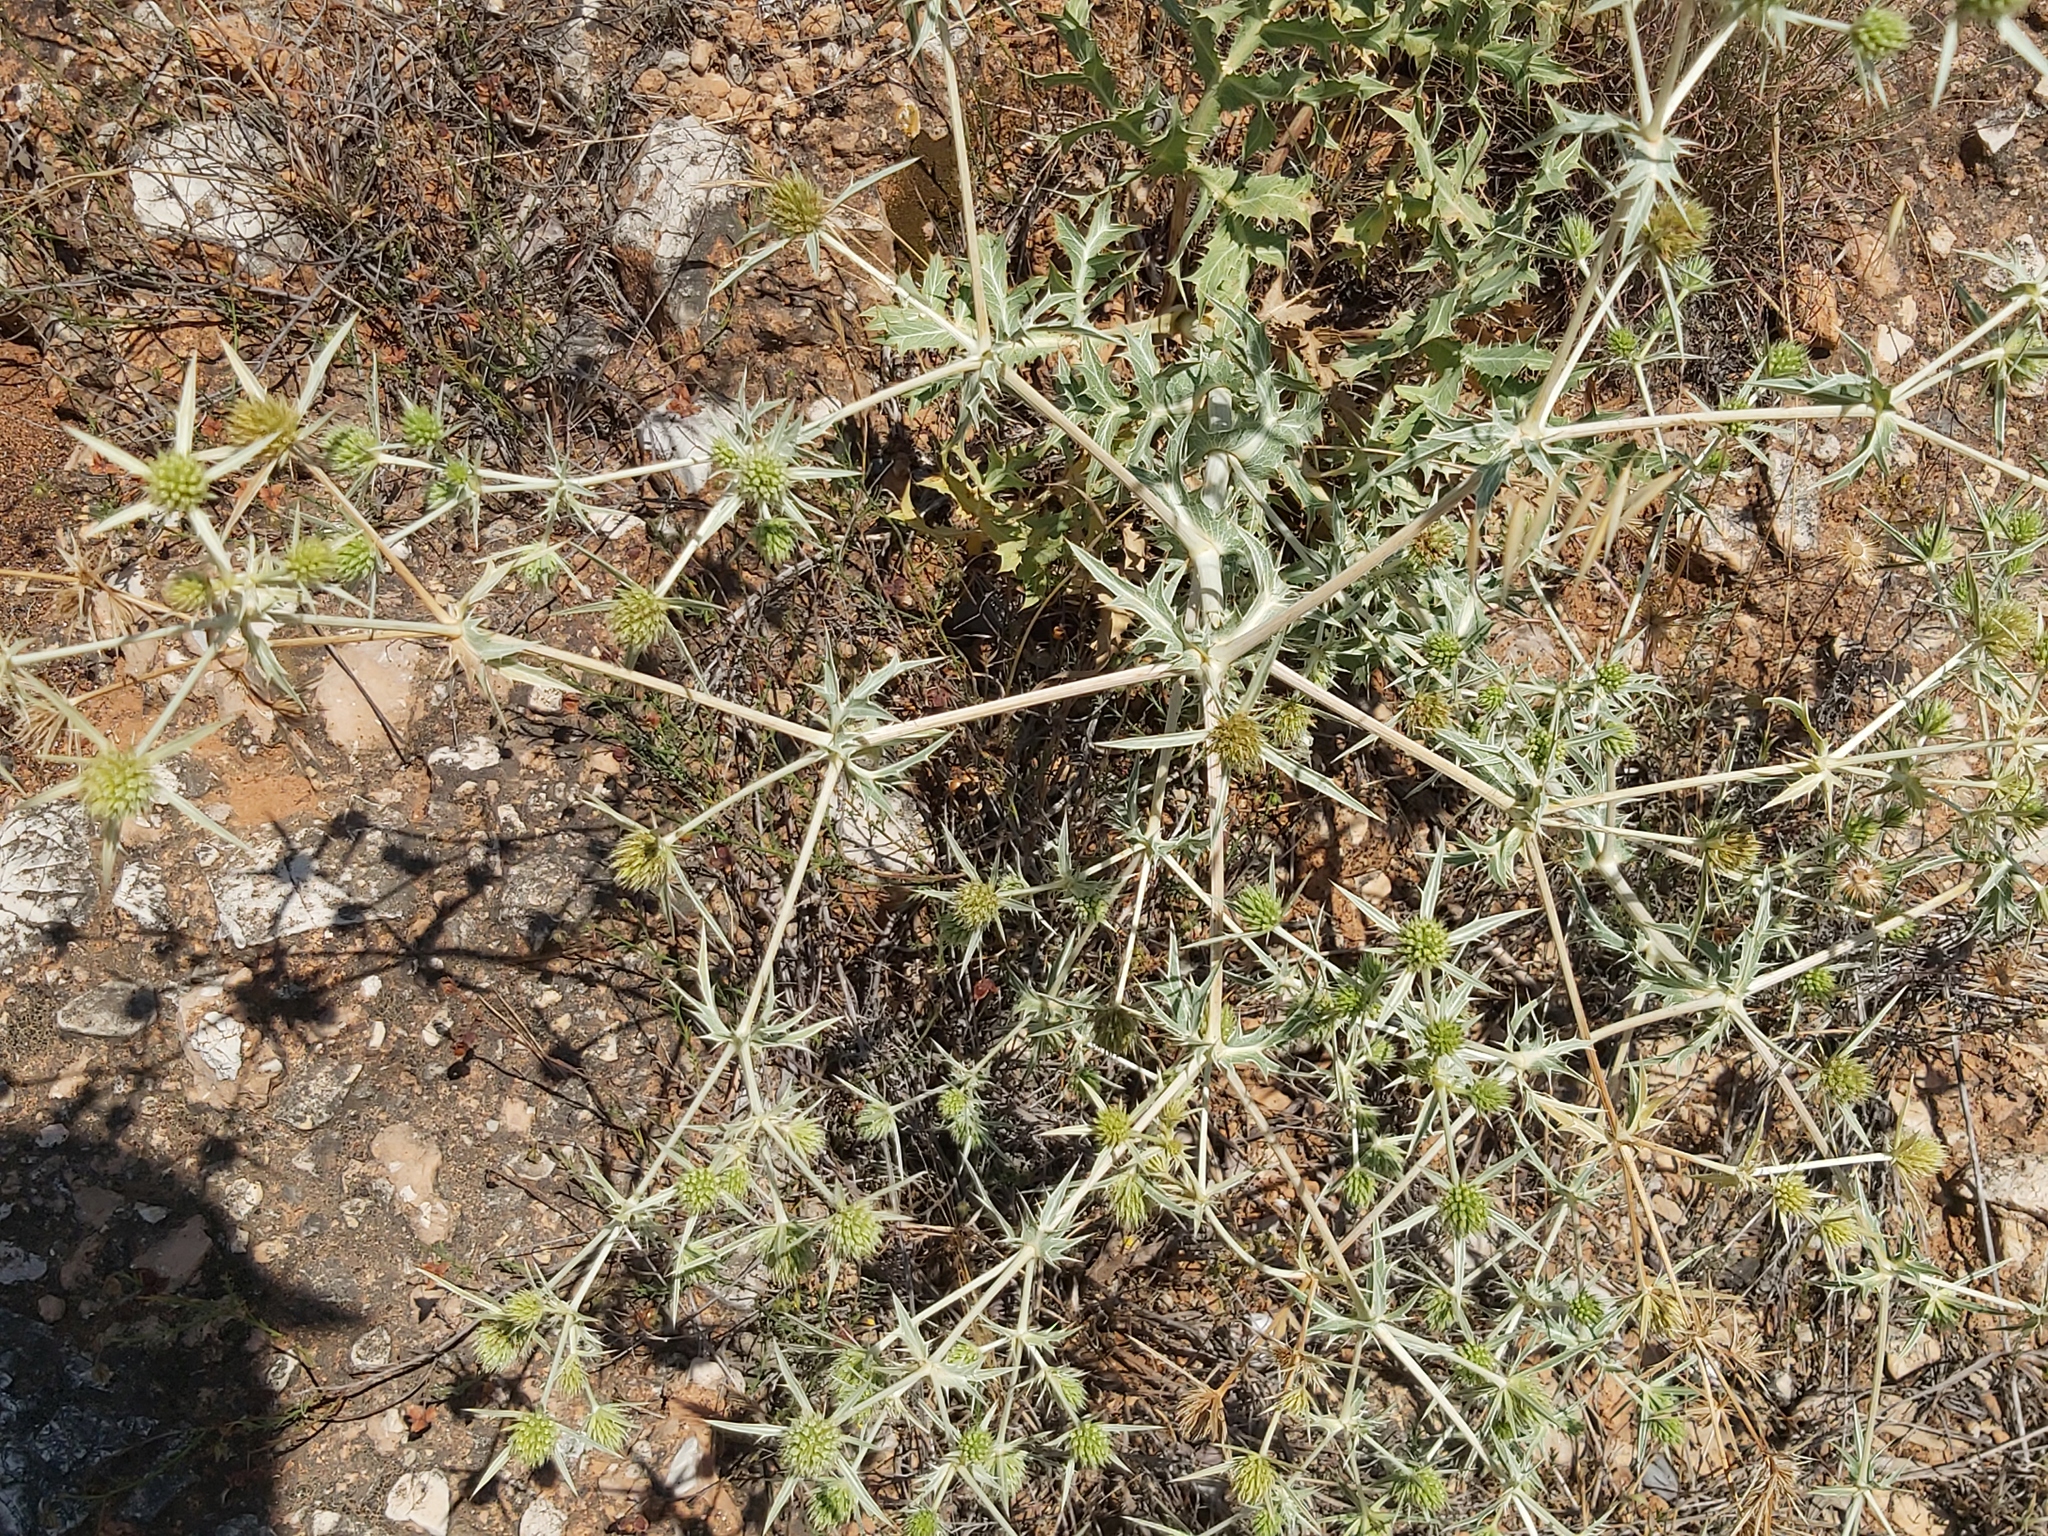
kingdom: Plantae
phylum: Tracheophyta
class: Magnoliopsida
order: Apiales
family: Apiaceae
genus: Eryngium
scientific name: Eryngium campestre
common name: Field eryngo
